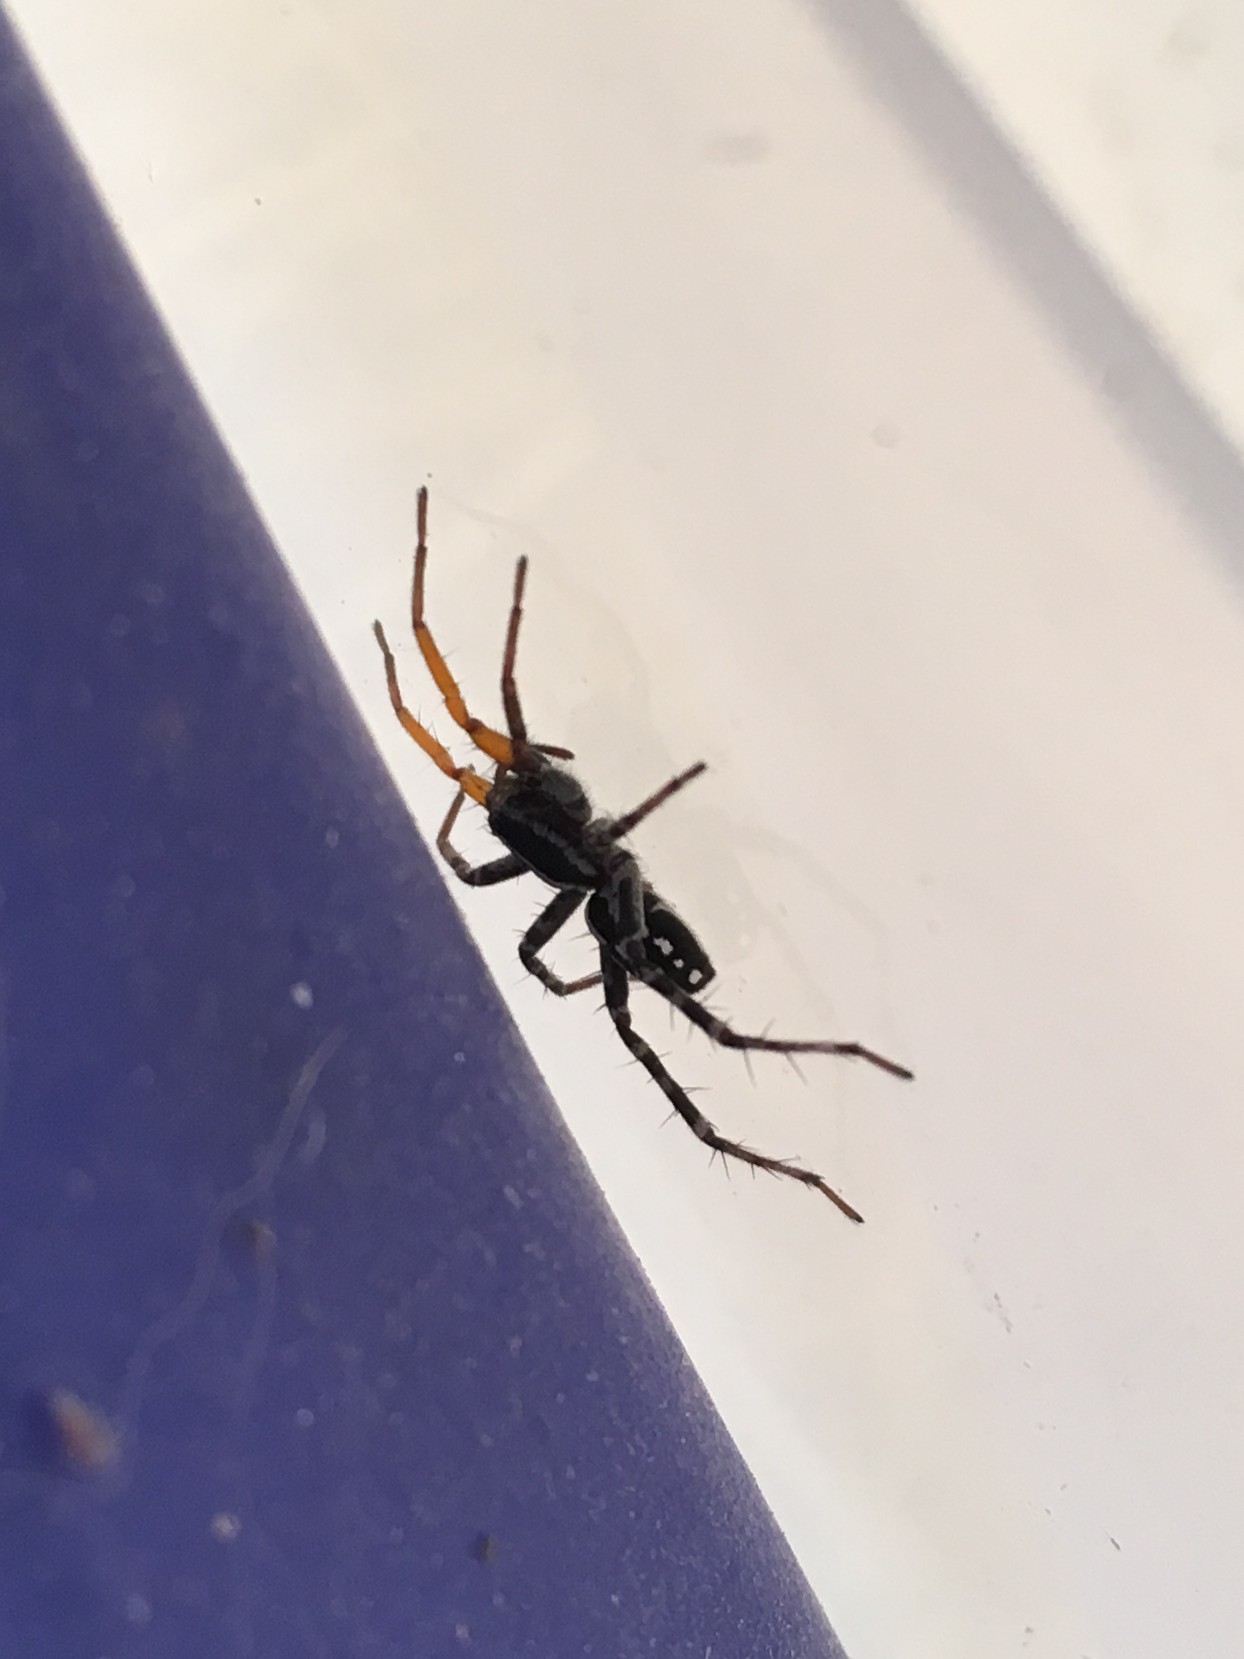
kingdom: Animalia
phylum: Arthropoda
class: Arachnida
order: Araneae
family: Corinnidae
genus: Nyssus
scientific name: Nyssus coloripes
